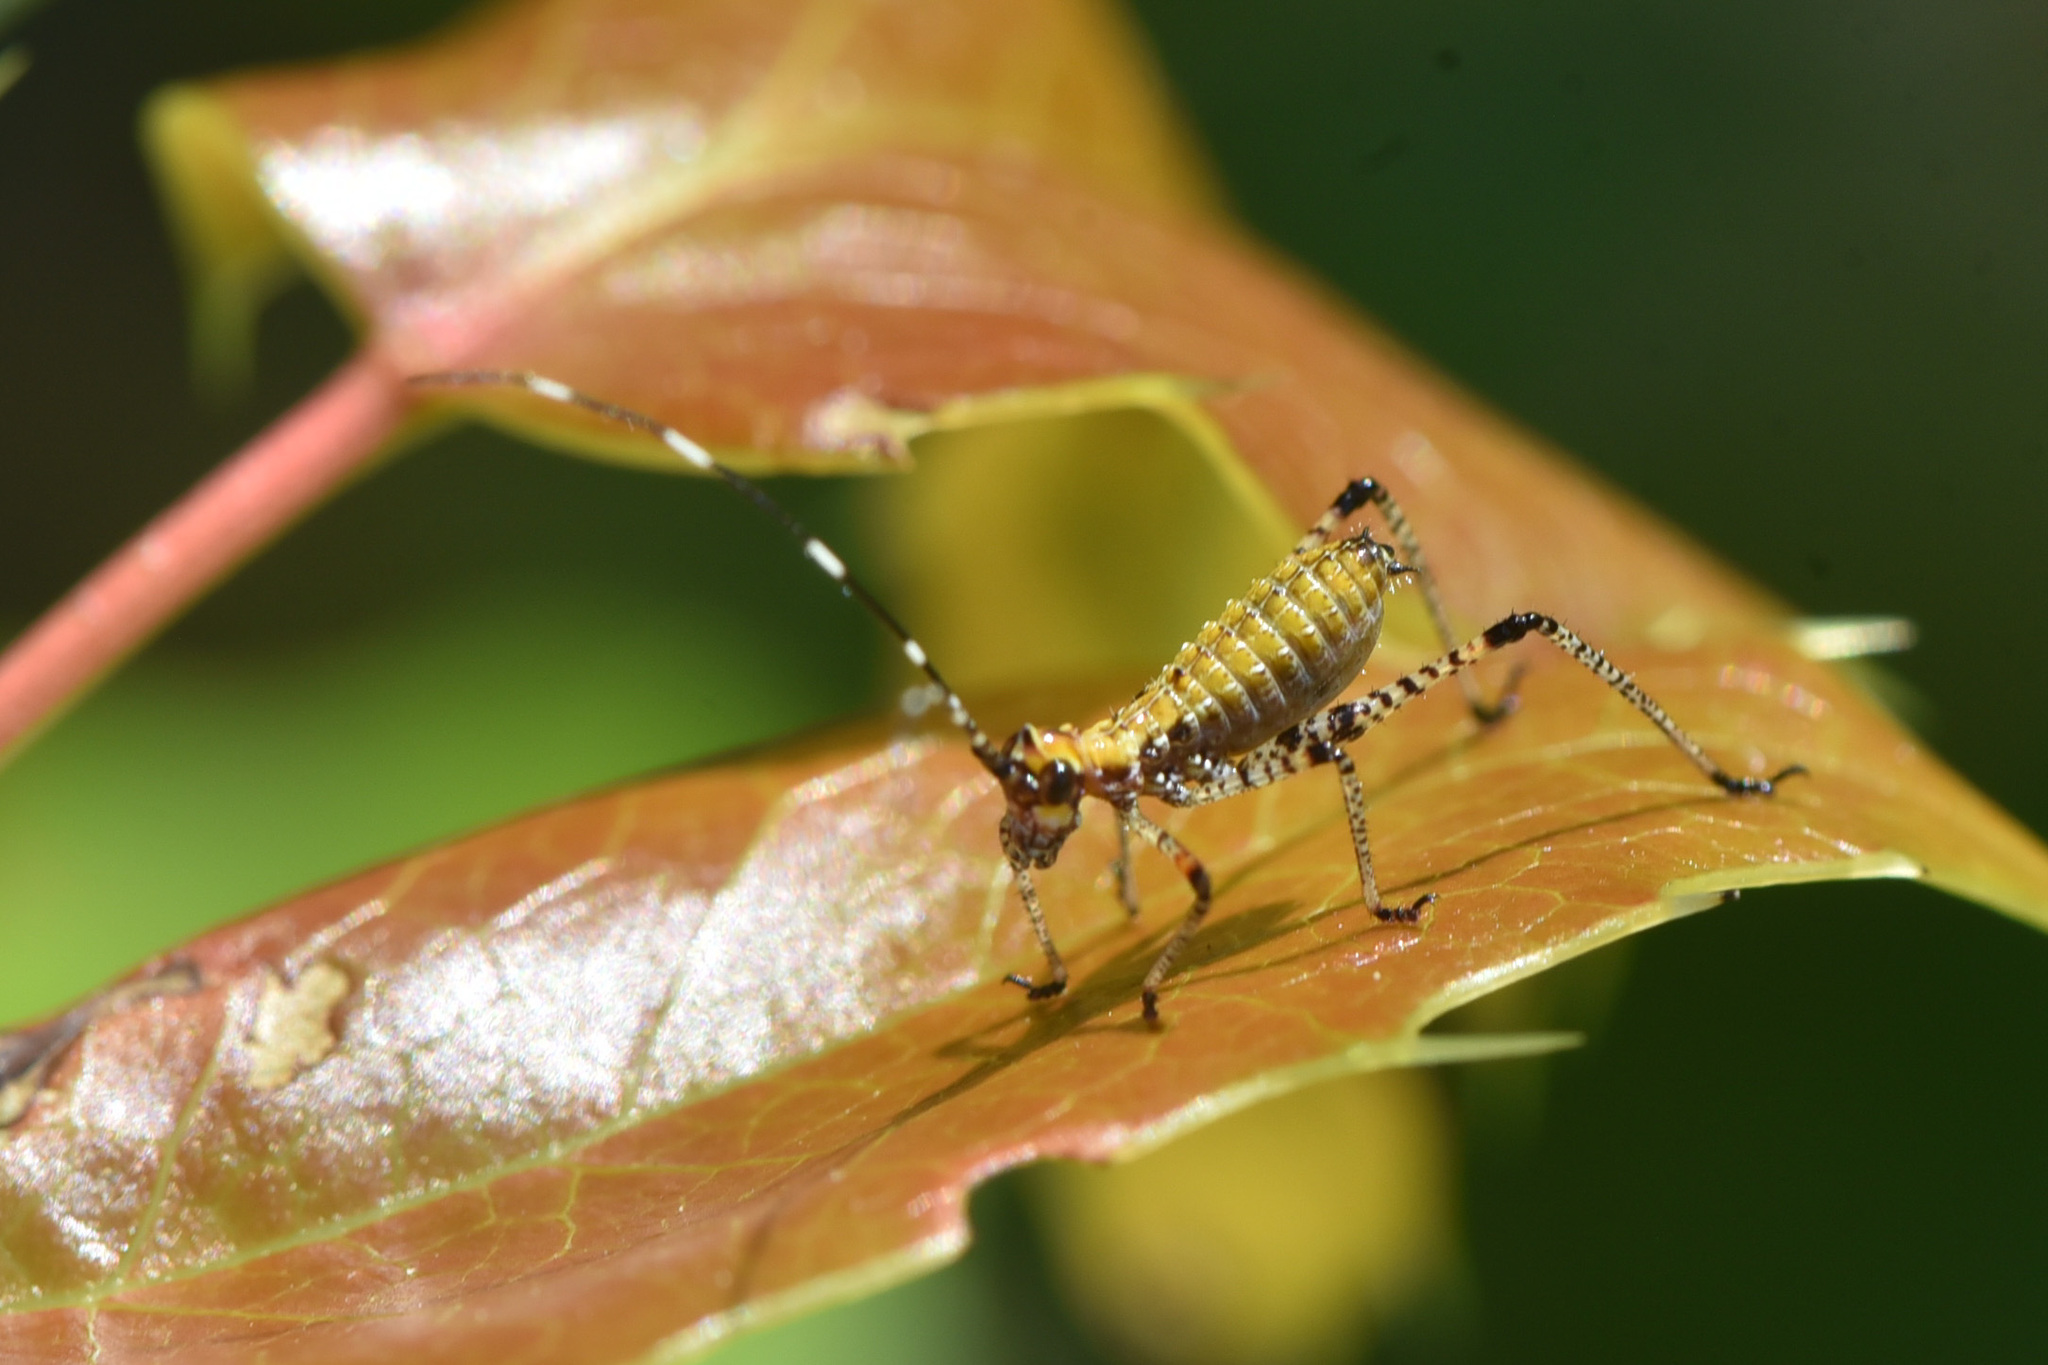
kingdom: Animalia
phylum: Arthropoda
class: Insecta
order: Orthoptera
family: Tettigoniidae
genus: Scudderia
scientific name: Scudderia furcata
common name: Fork-tailed bush katydid
